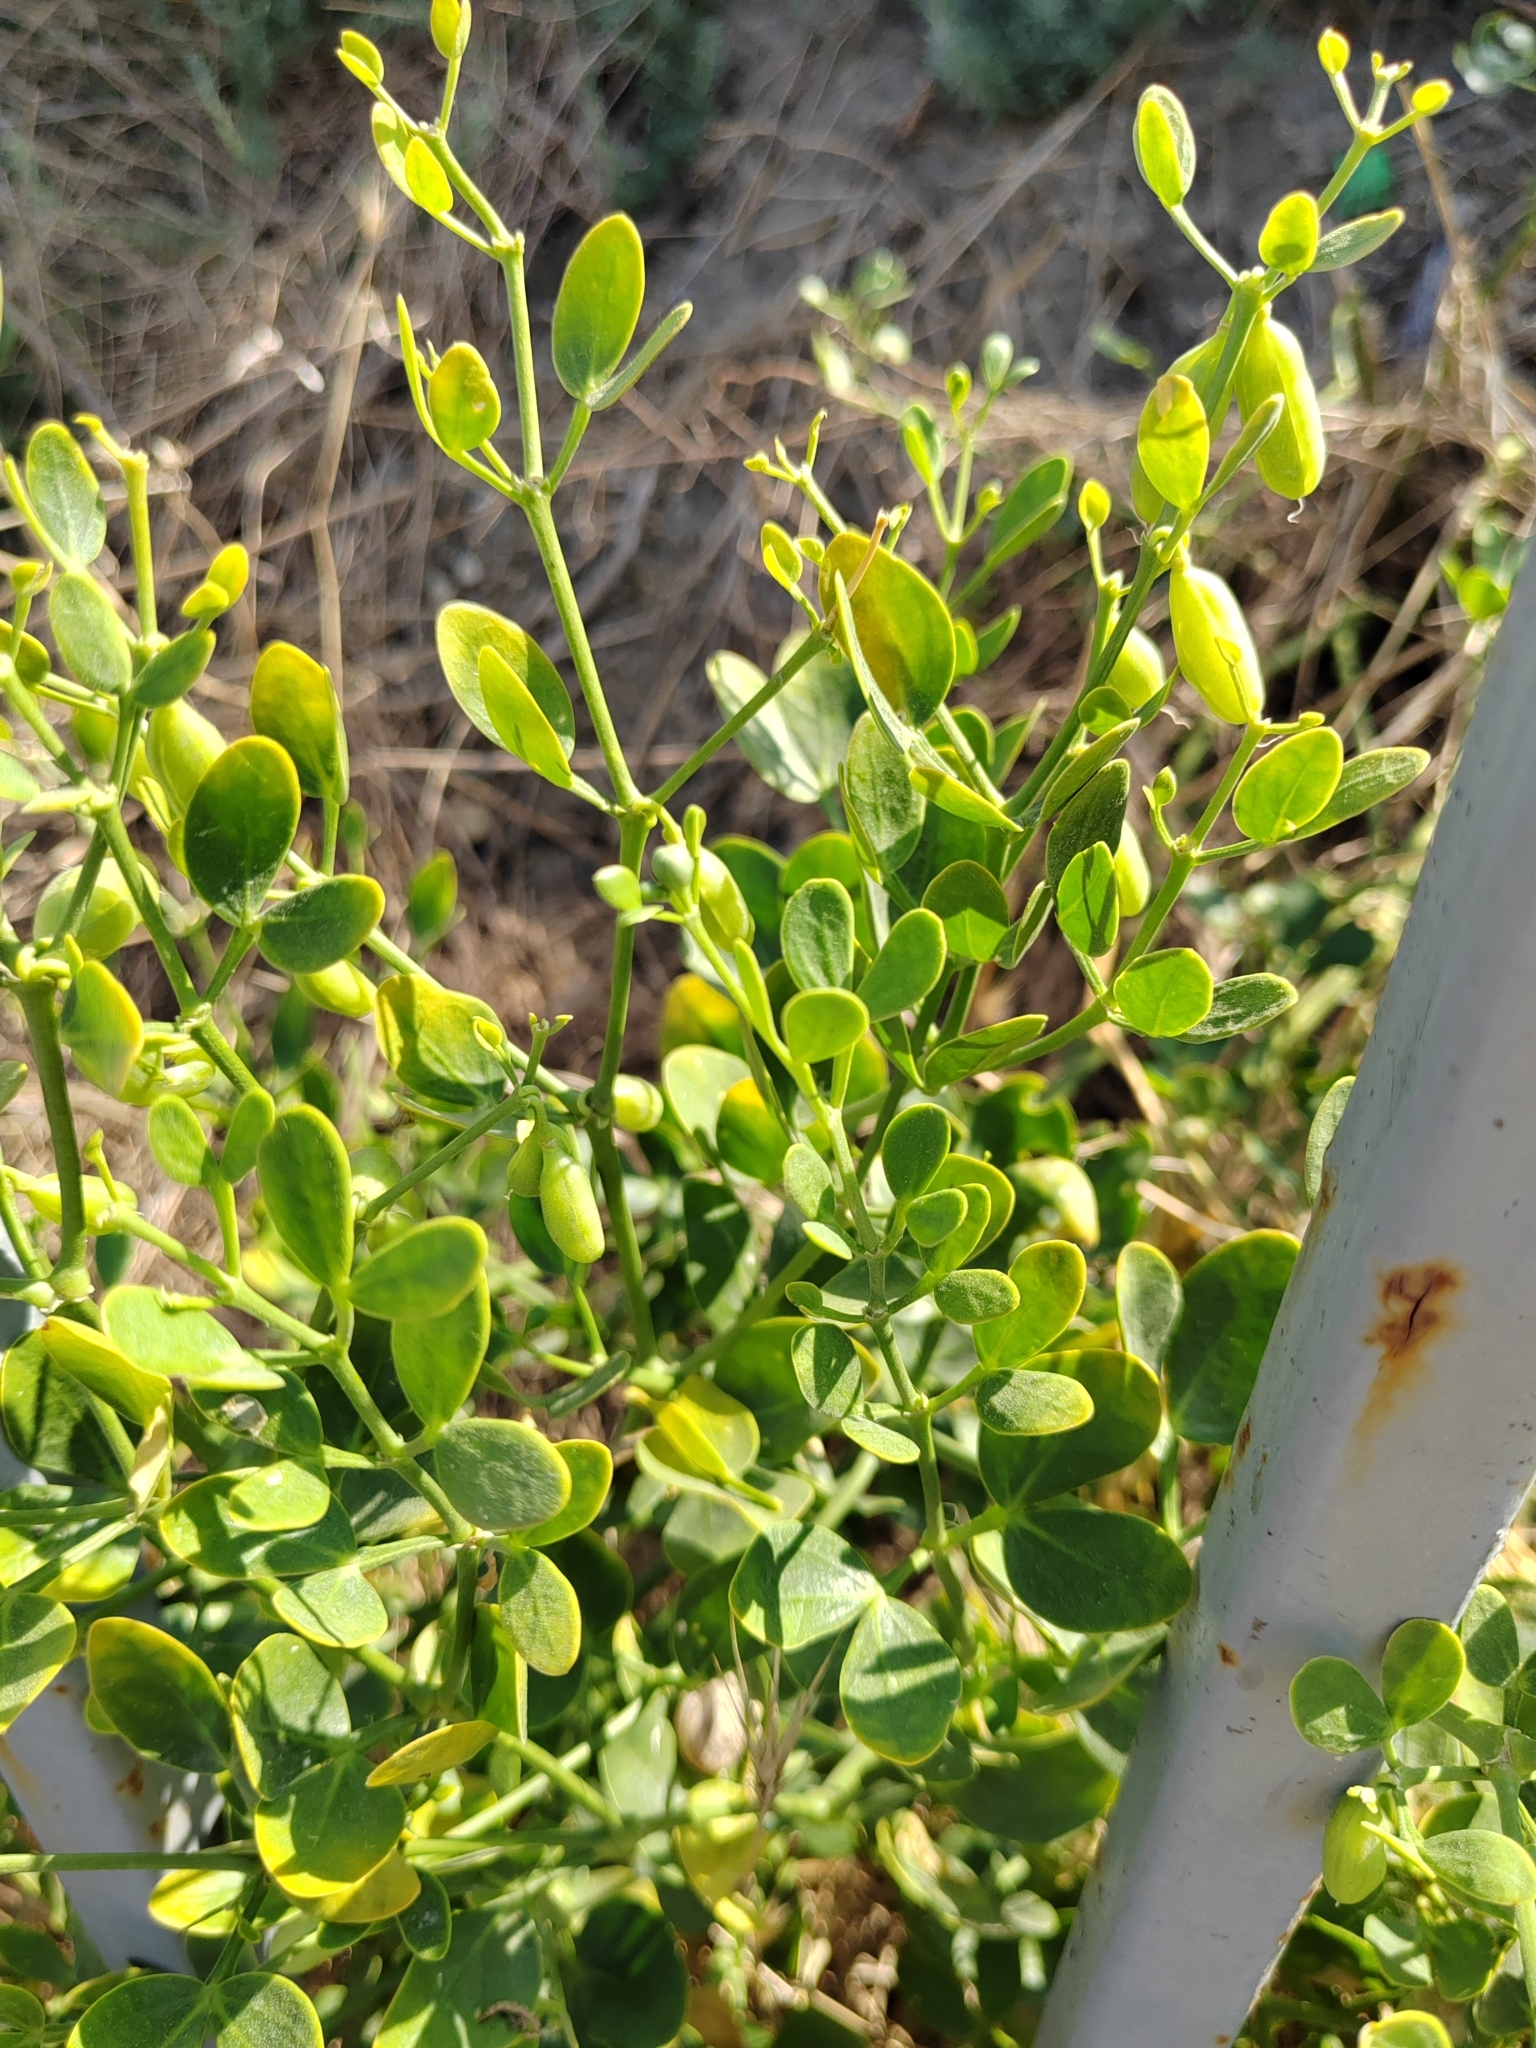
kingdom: Plantae
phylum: Tracheophyta
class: Magnoliopsida
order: Zygophyllales
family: Zygophyllaceae
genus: Zygophyllum
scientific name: Zygophyllum fabago
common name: Syrian beancaper
